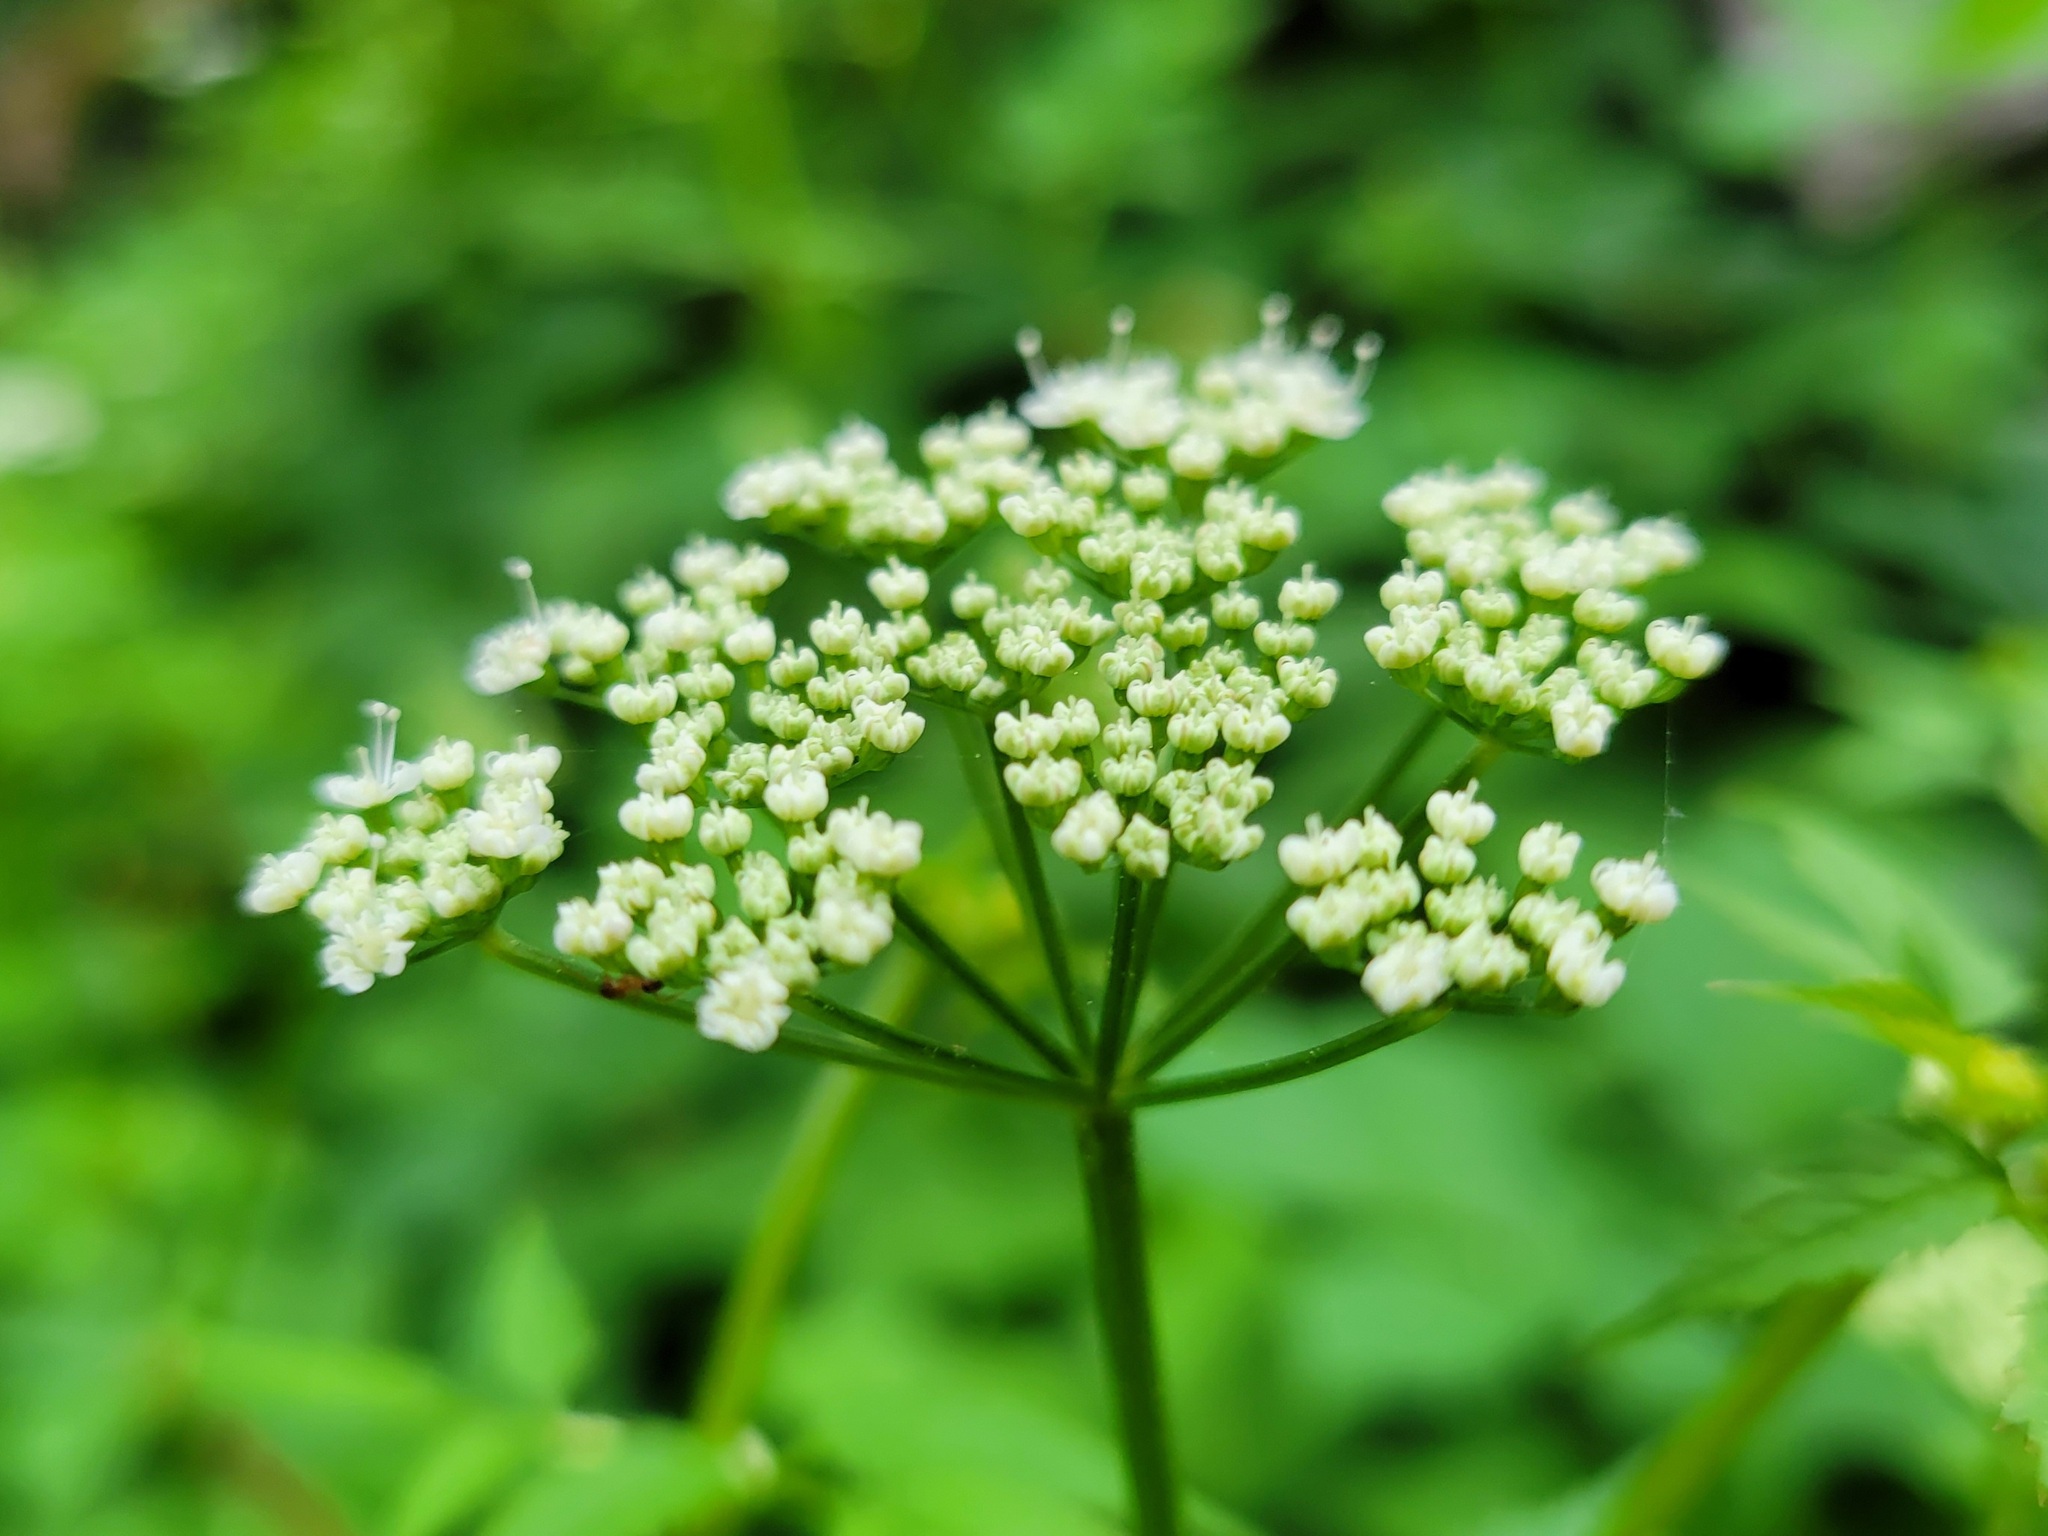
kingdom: Plantae
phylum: Tracheophyta
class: Magnoliopsida
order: Apiales
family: Apiaceae
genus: Aegopodium
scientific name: Aegopodium podagraria
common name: Ground-elder
